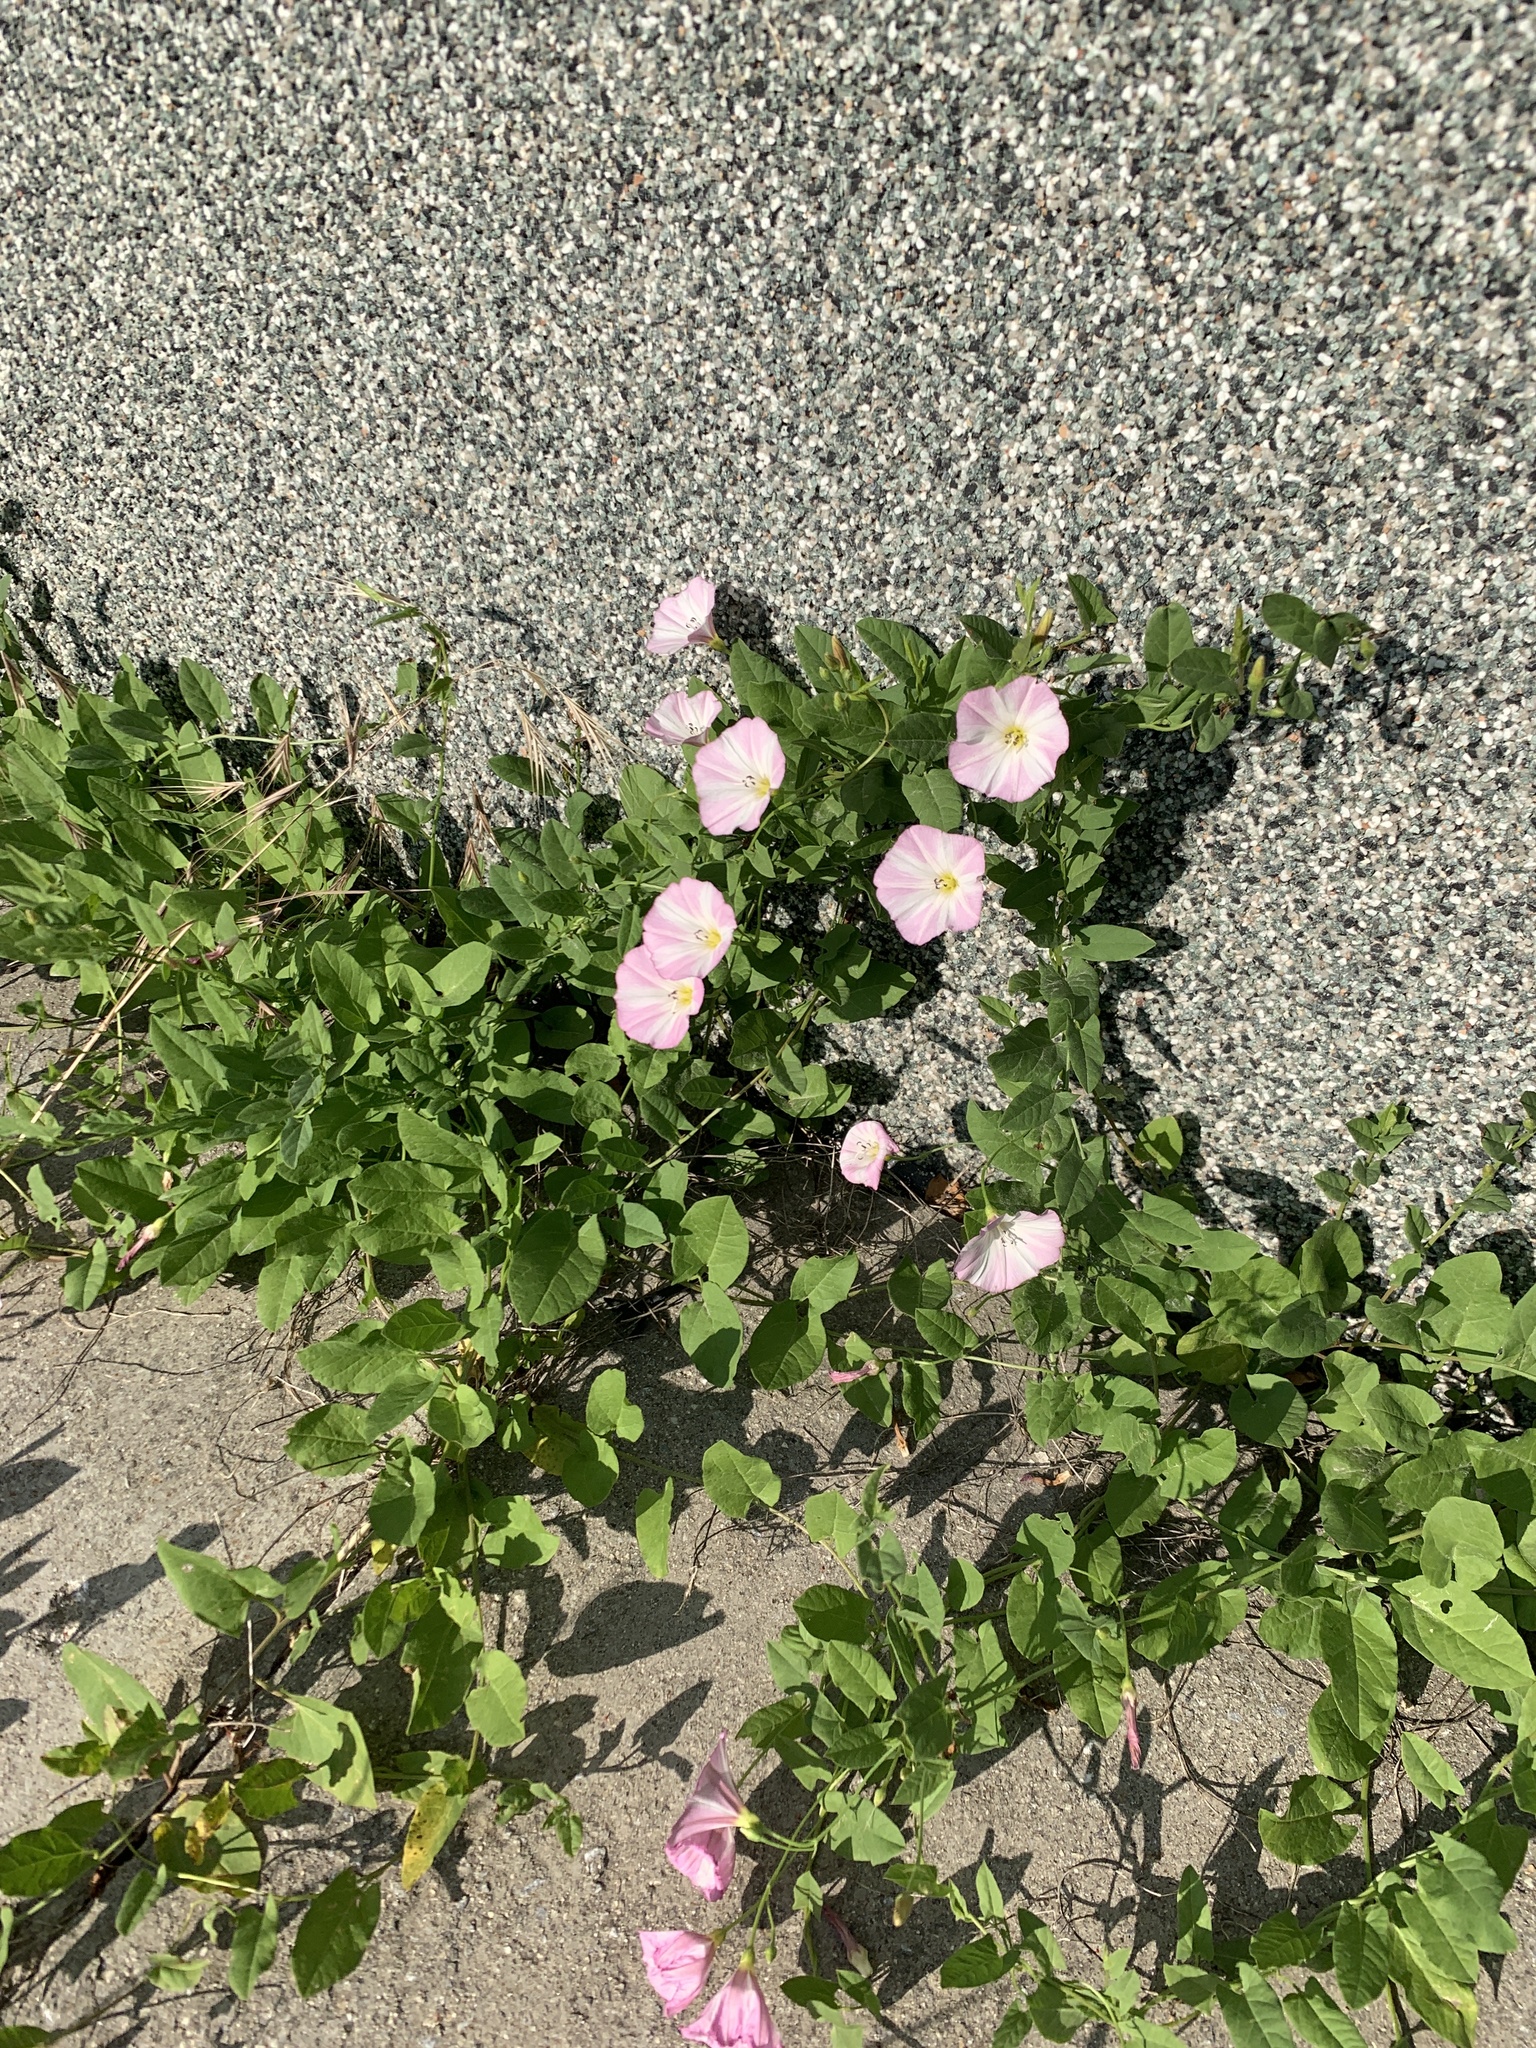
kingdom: Plantae
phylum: Tracheophyta
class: Magnoliopsida
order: Solanales
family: Convolvulaceae
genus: Convolvulus
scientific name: Convolvulus arvensis
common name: Field bindweed
